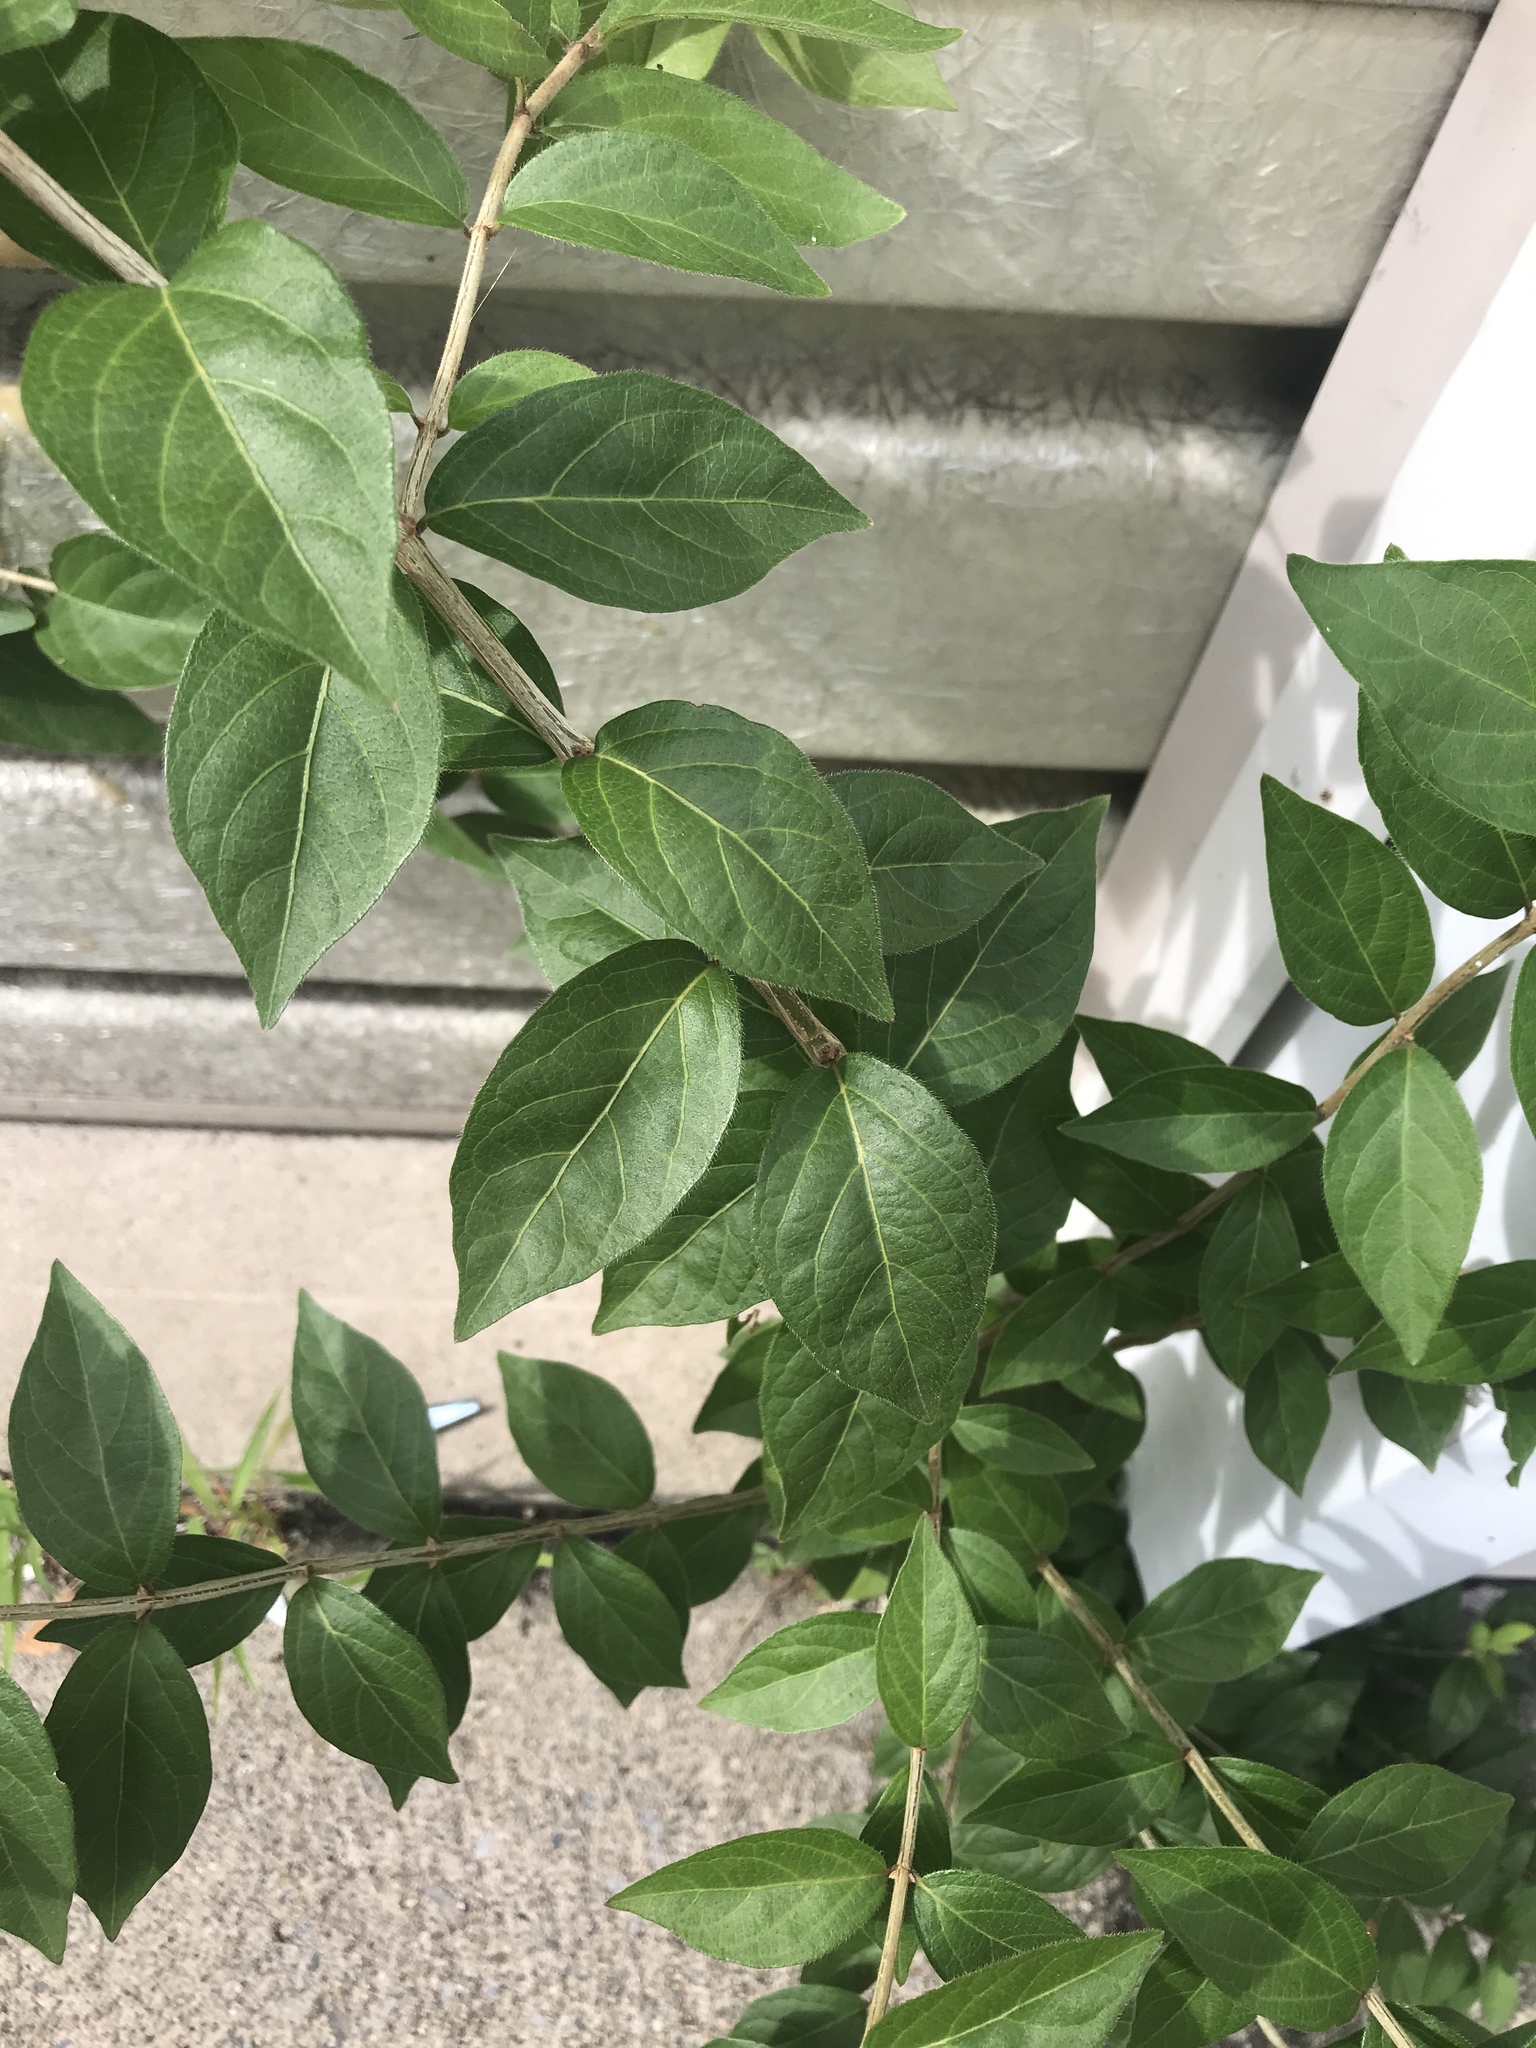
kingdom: Plantae
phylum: Tracheophyta
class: Magnoliopsida
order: Dipsacales
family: Caprifoliaceae
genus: Lonicera
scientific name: Lonicera maackii
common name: Amur honeysuckle
